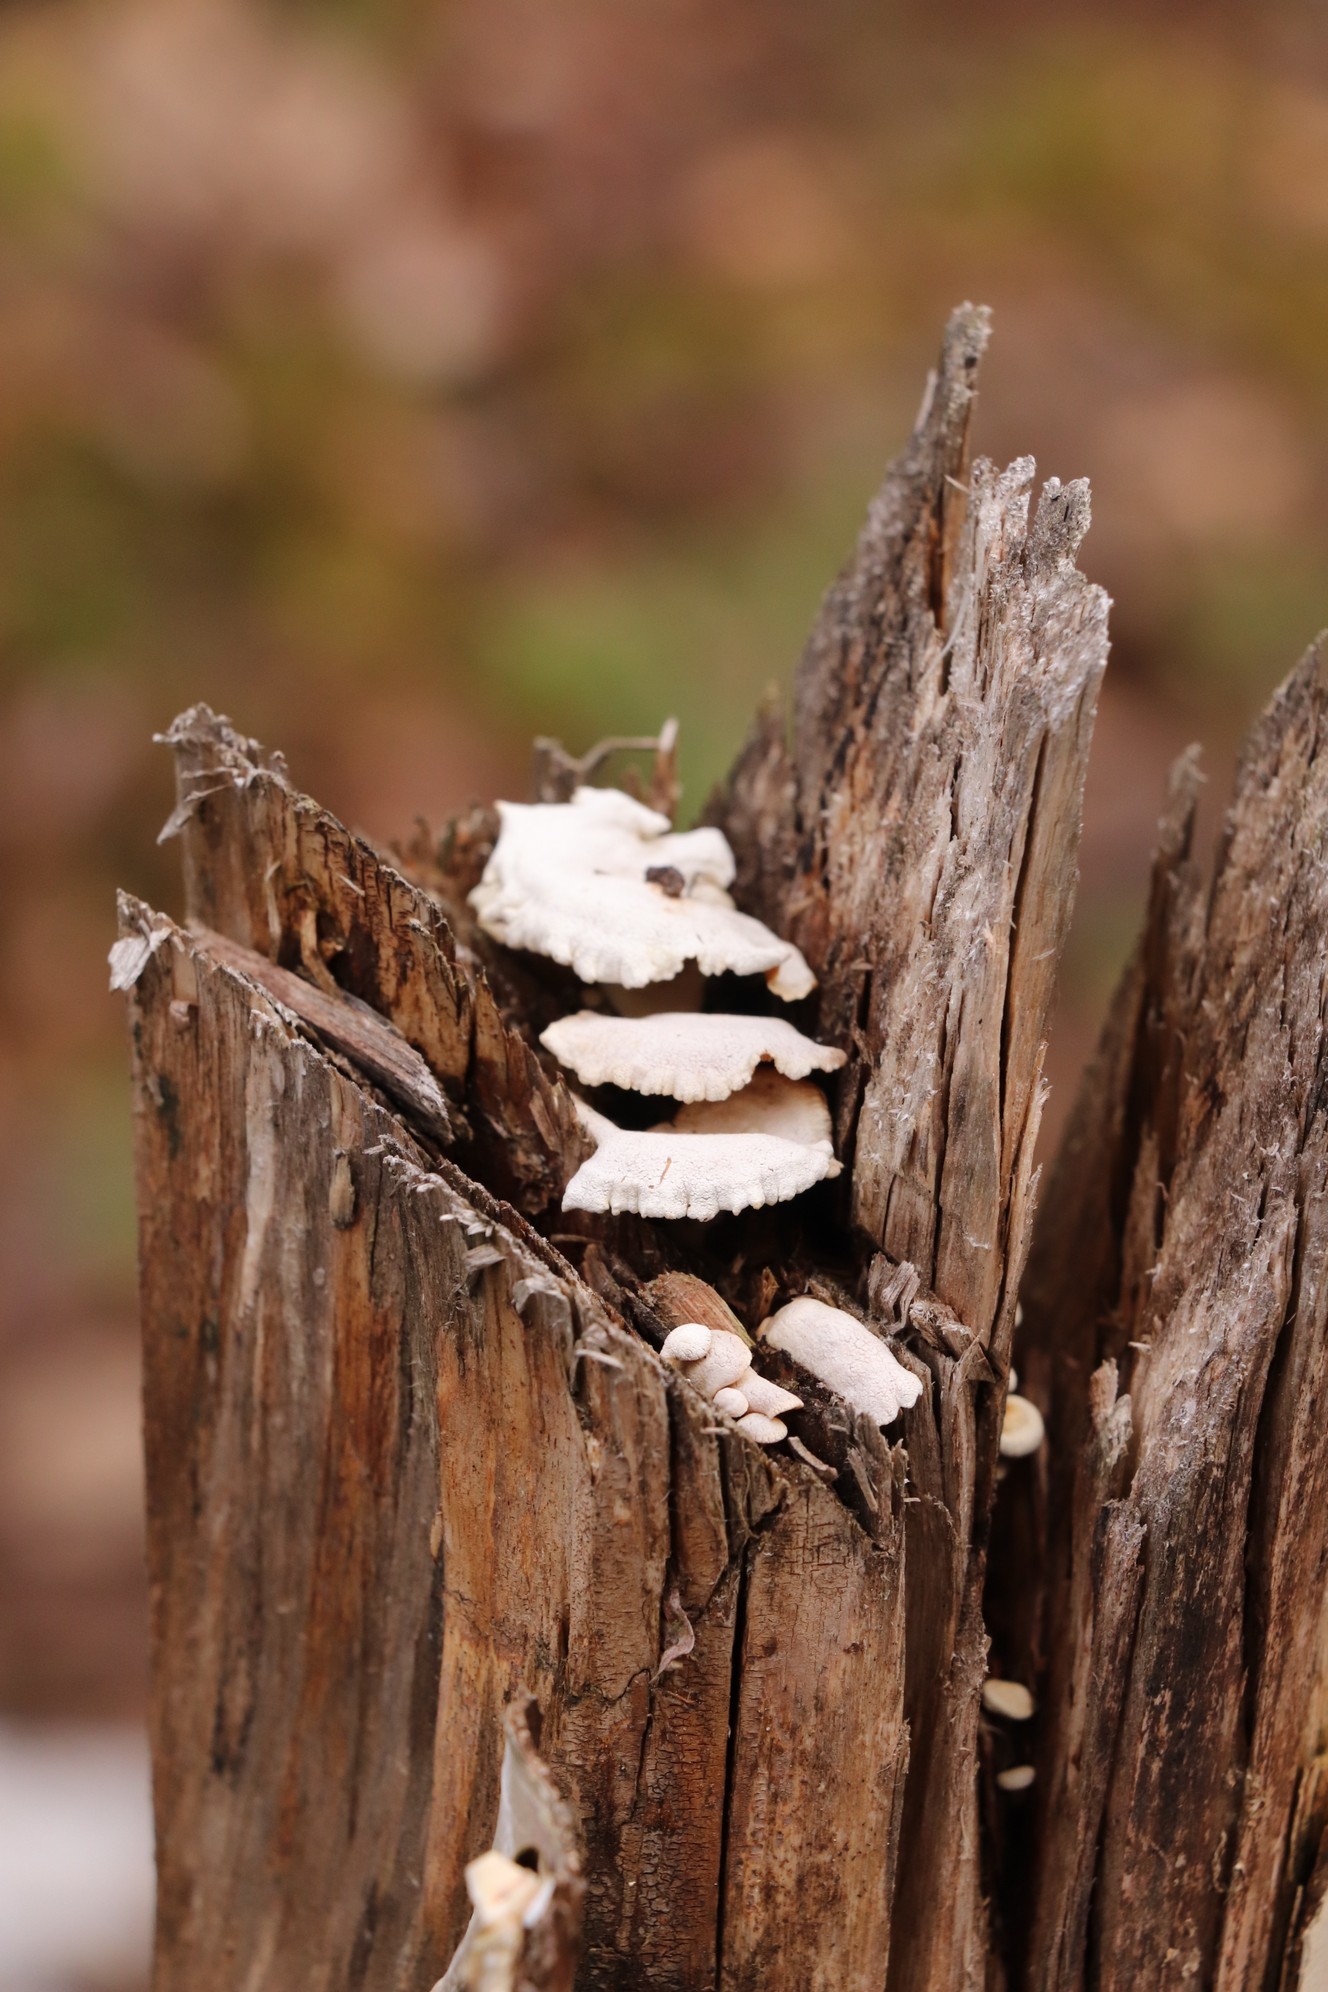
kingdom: Fungi
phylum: Basidiomycota
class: Agaricomycetes
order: Agaricales
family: Mycenaceae
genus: Panellus
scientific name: Panellus stipticus
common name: Bitter oysterling
